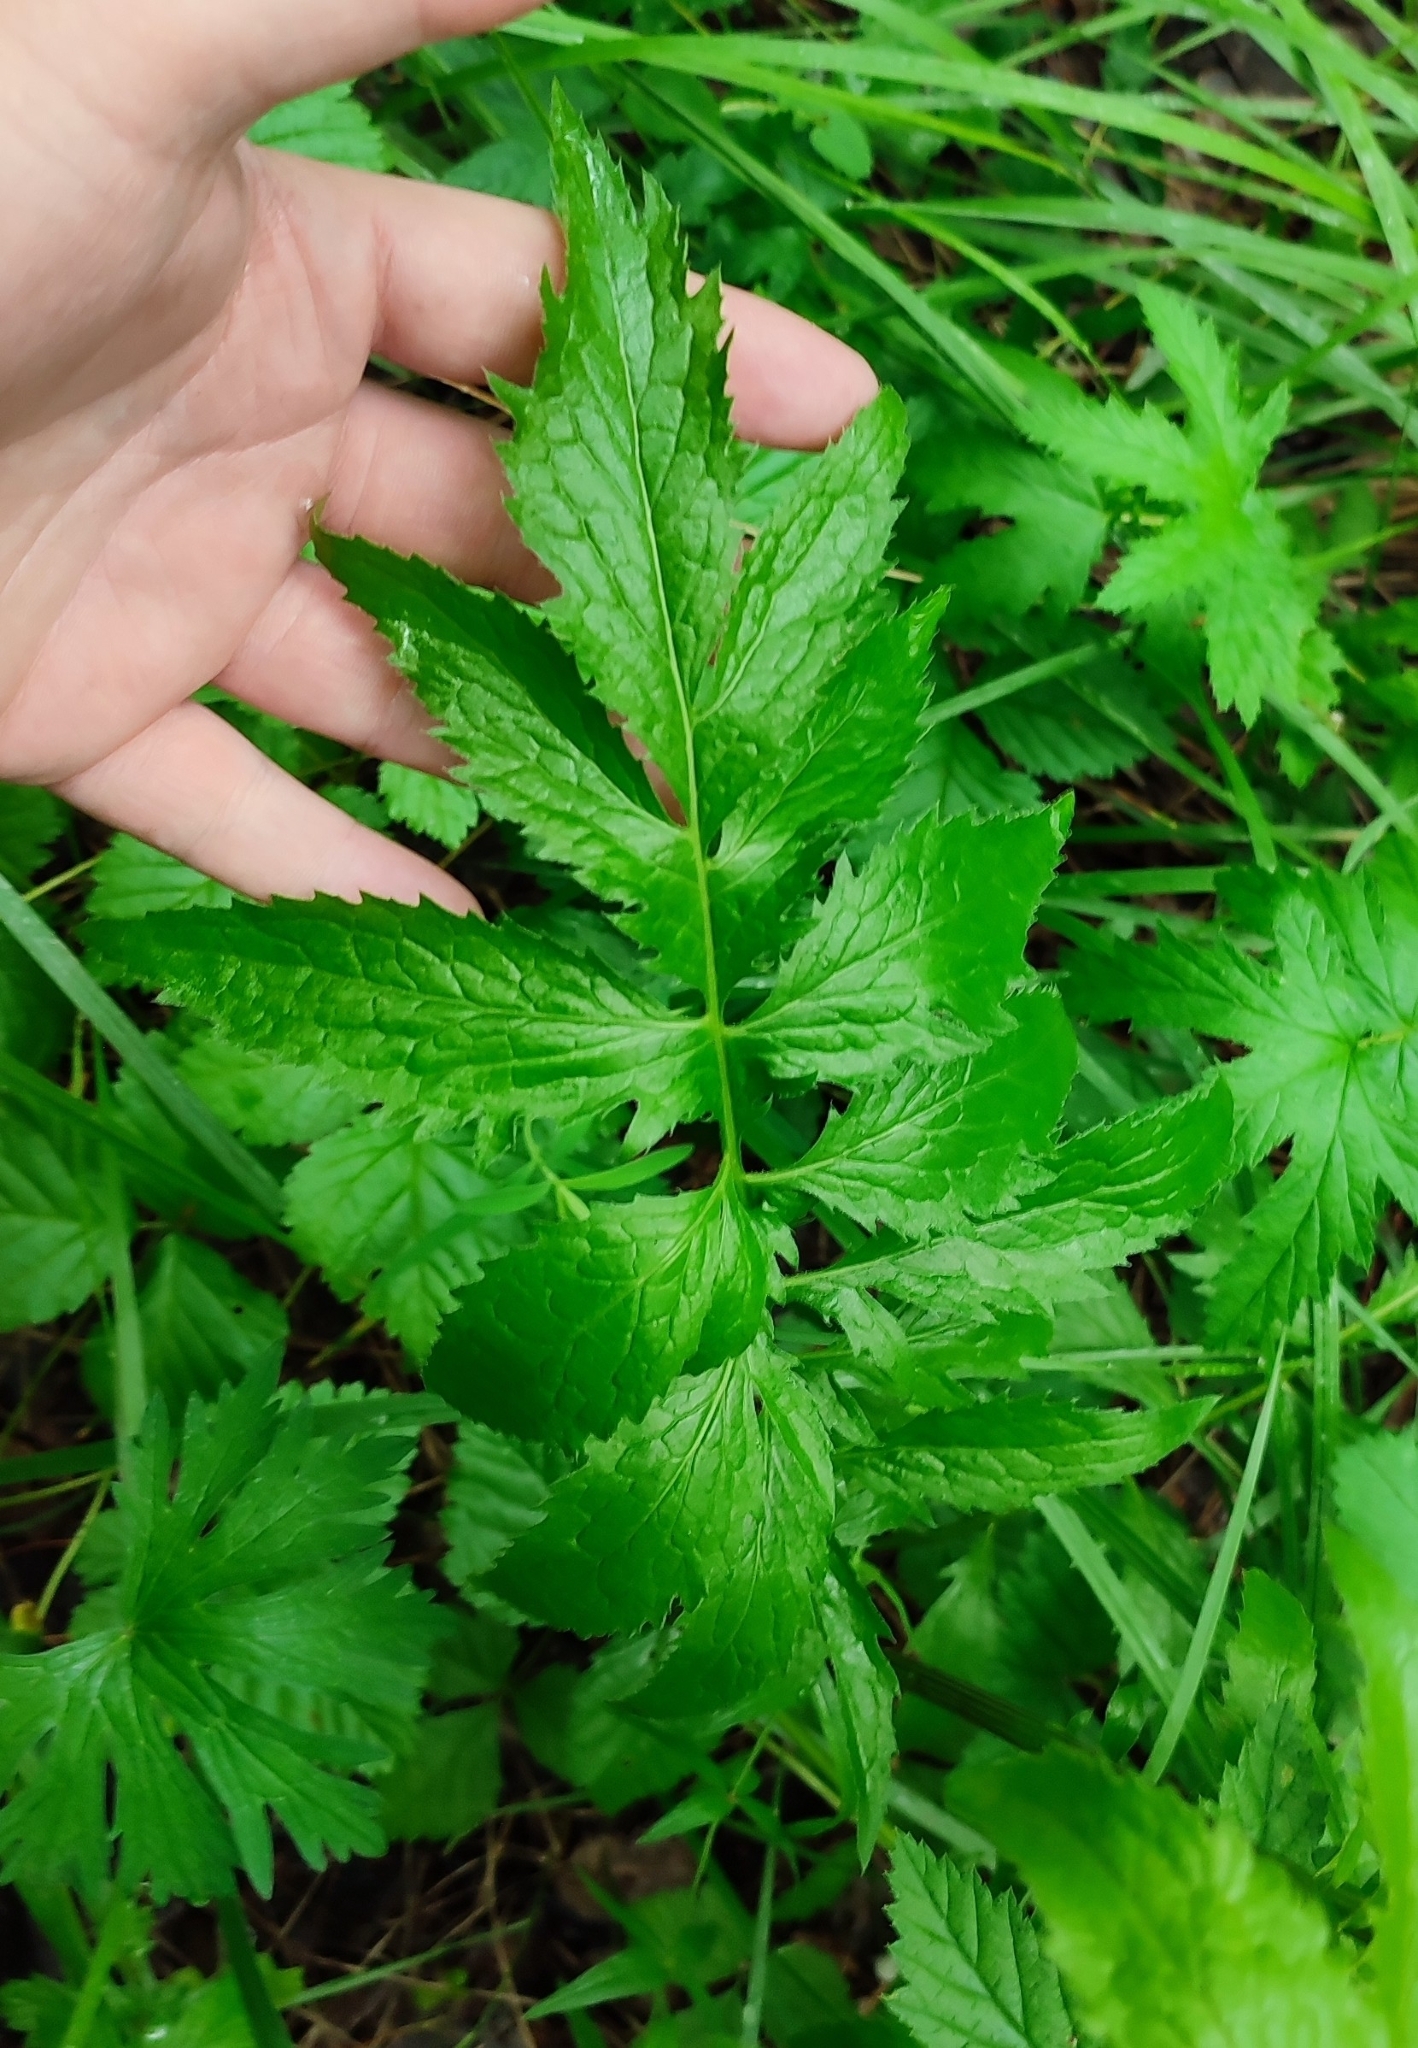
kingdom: Plantae
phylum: Tracheophyta
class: Magnoliopsida
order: Asterales
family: Asteraceae
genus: Serratula
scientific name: Serratula coronata
